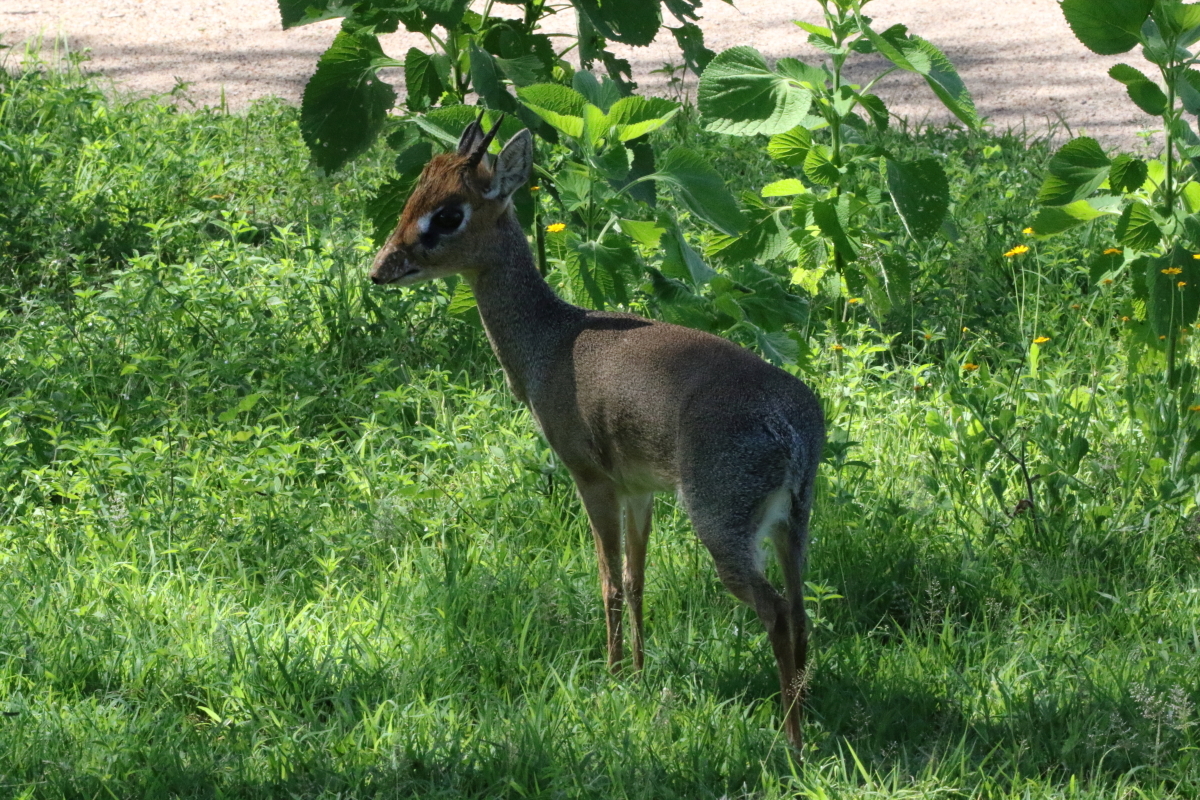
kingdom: Animalia
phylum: Chordata
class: Mammalia
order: Artiodactyla
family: Bovidae
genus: Madoqua
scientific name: Madoqua
